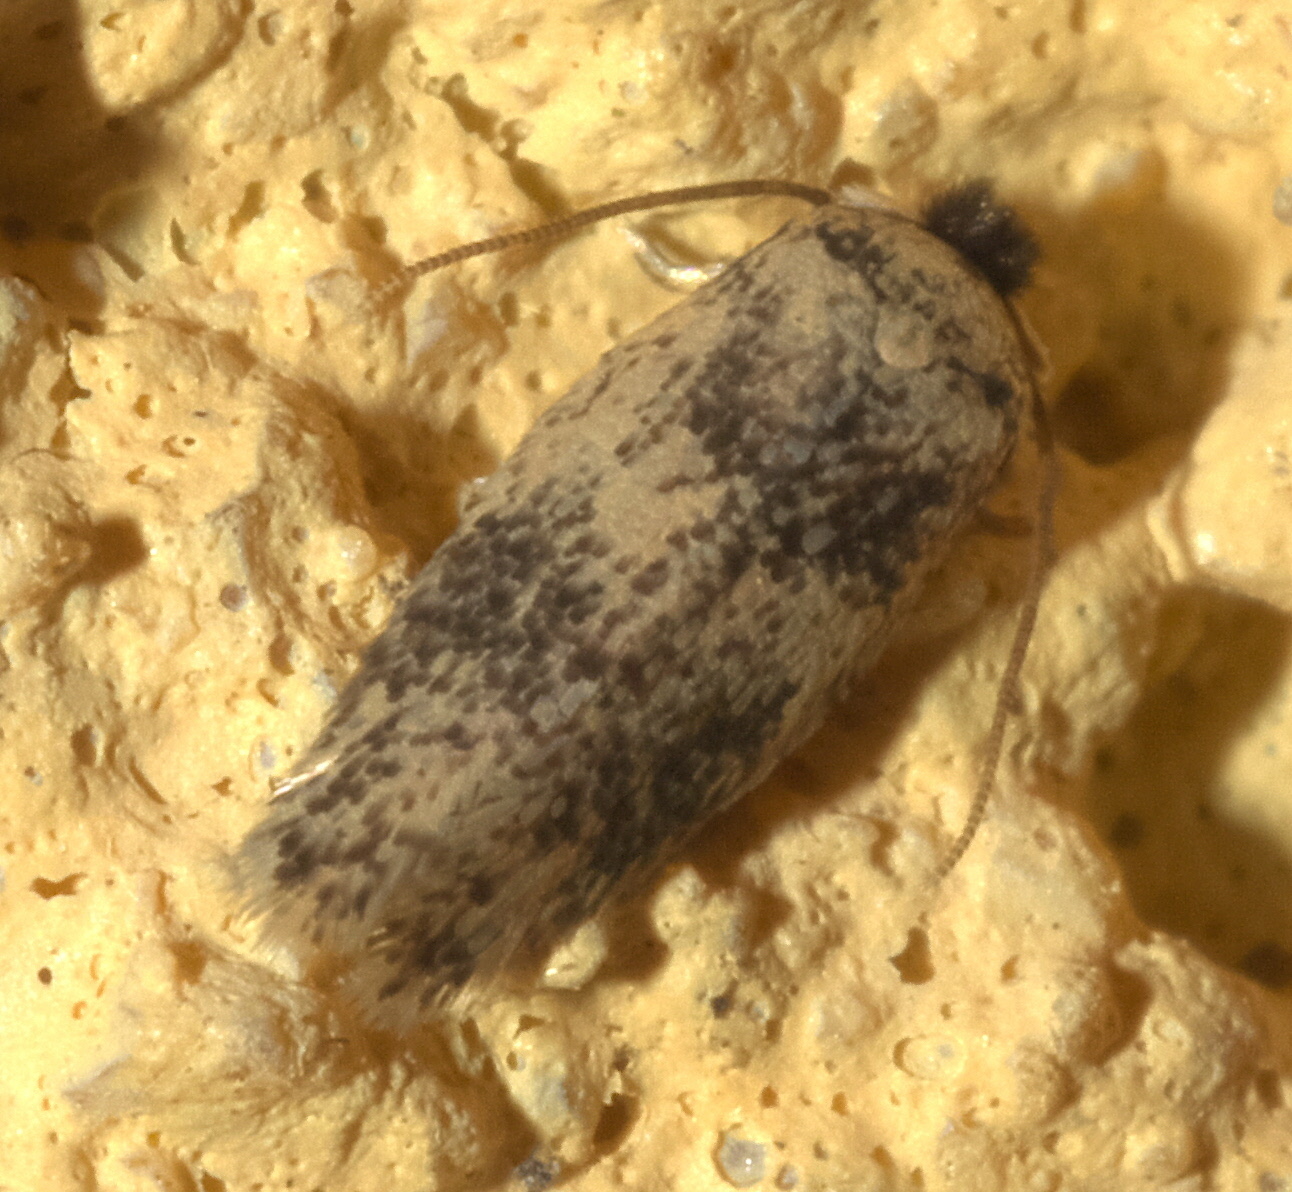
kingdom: Animalia
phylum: Arthropoda
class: Insecta
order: Lepidoptera
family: Nepticulidae
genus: Zimmermannia
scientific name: Zimmermannia bosquella
